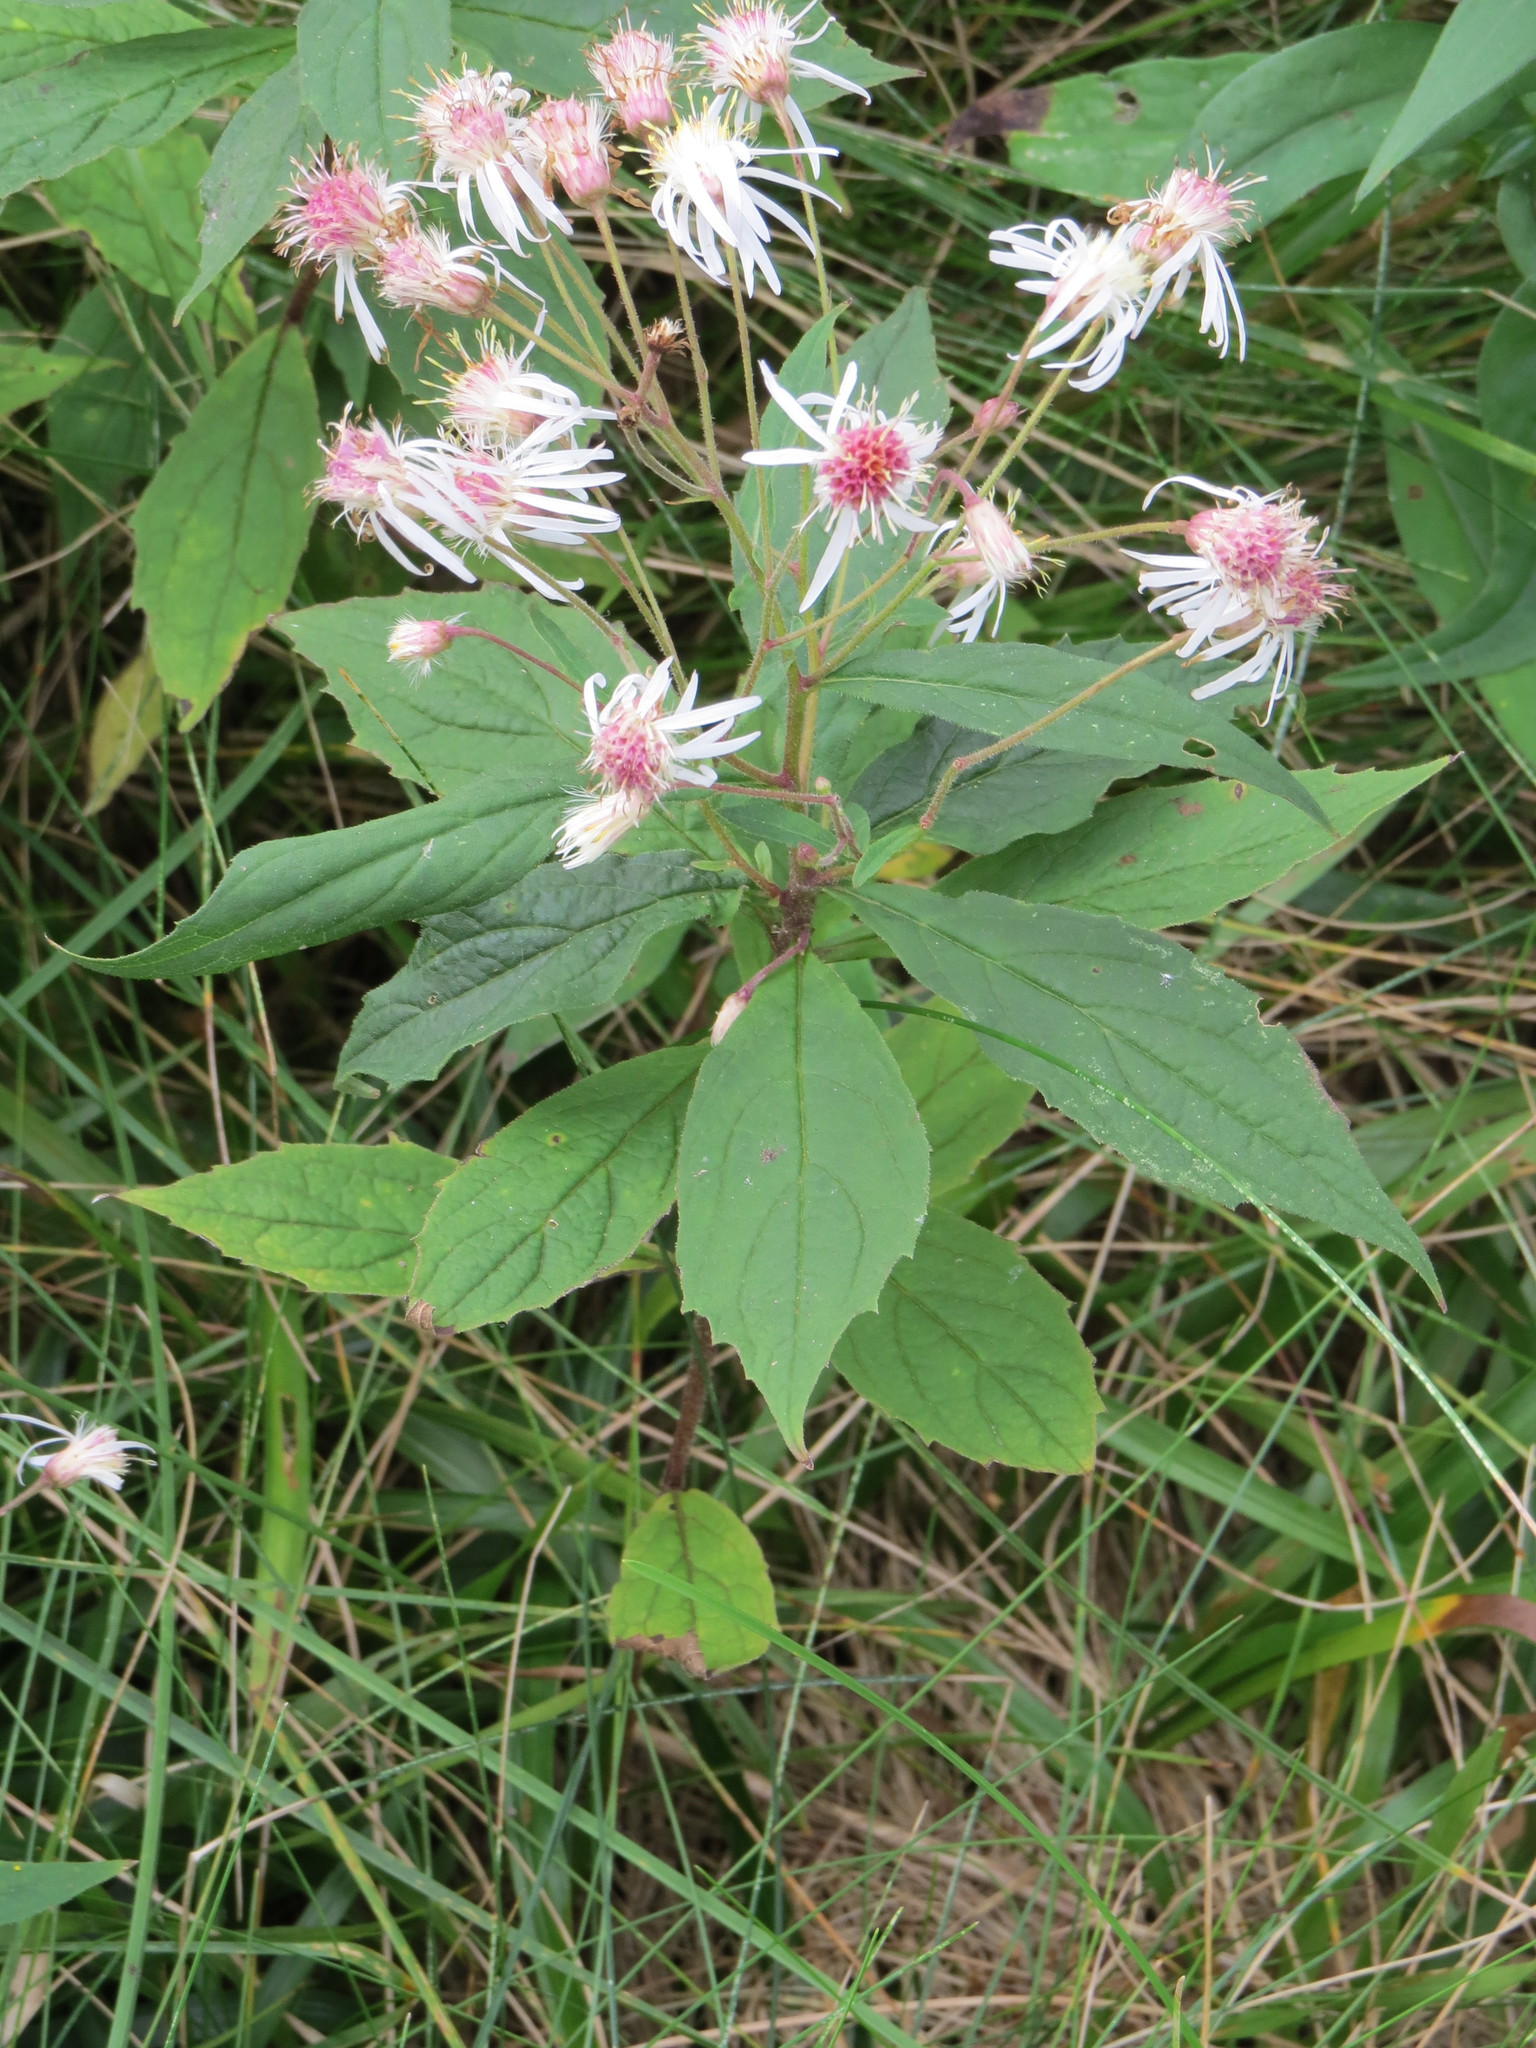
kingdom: Plantae
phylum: Tracheophyta
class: Magnoliopsida
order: Asterales
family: Asteraceae
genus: Oclemena
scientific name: Oclemena acuminata
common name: Mountain aster
